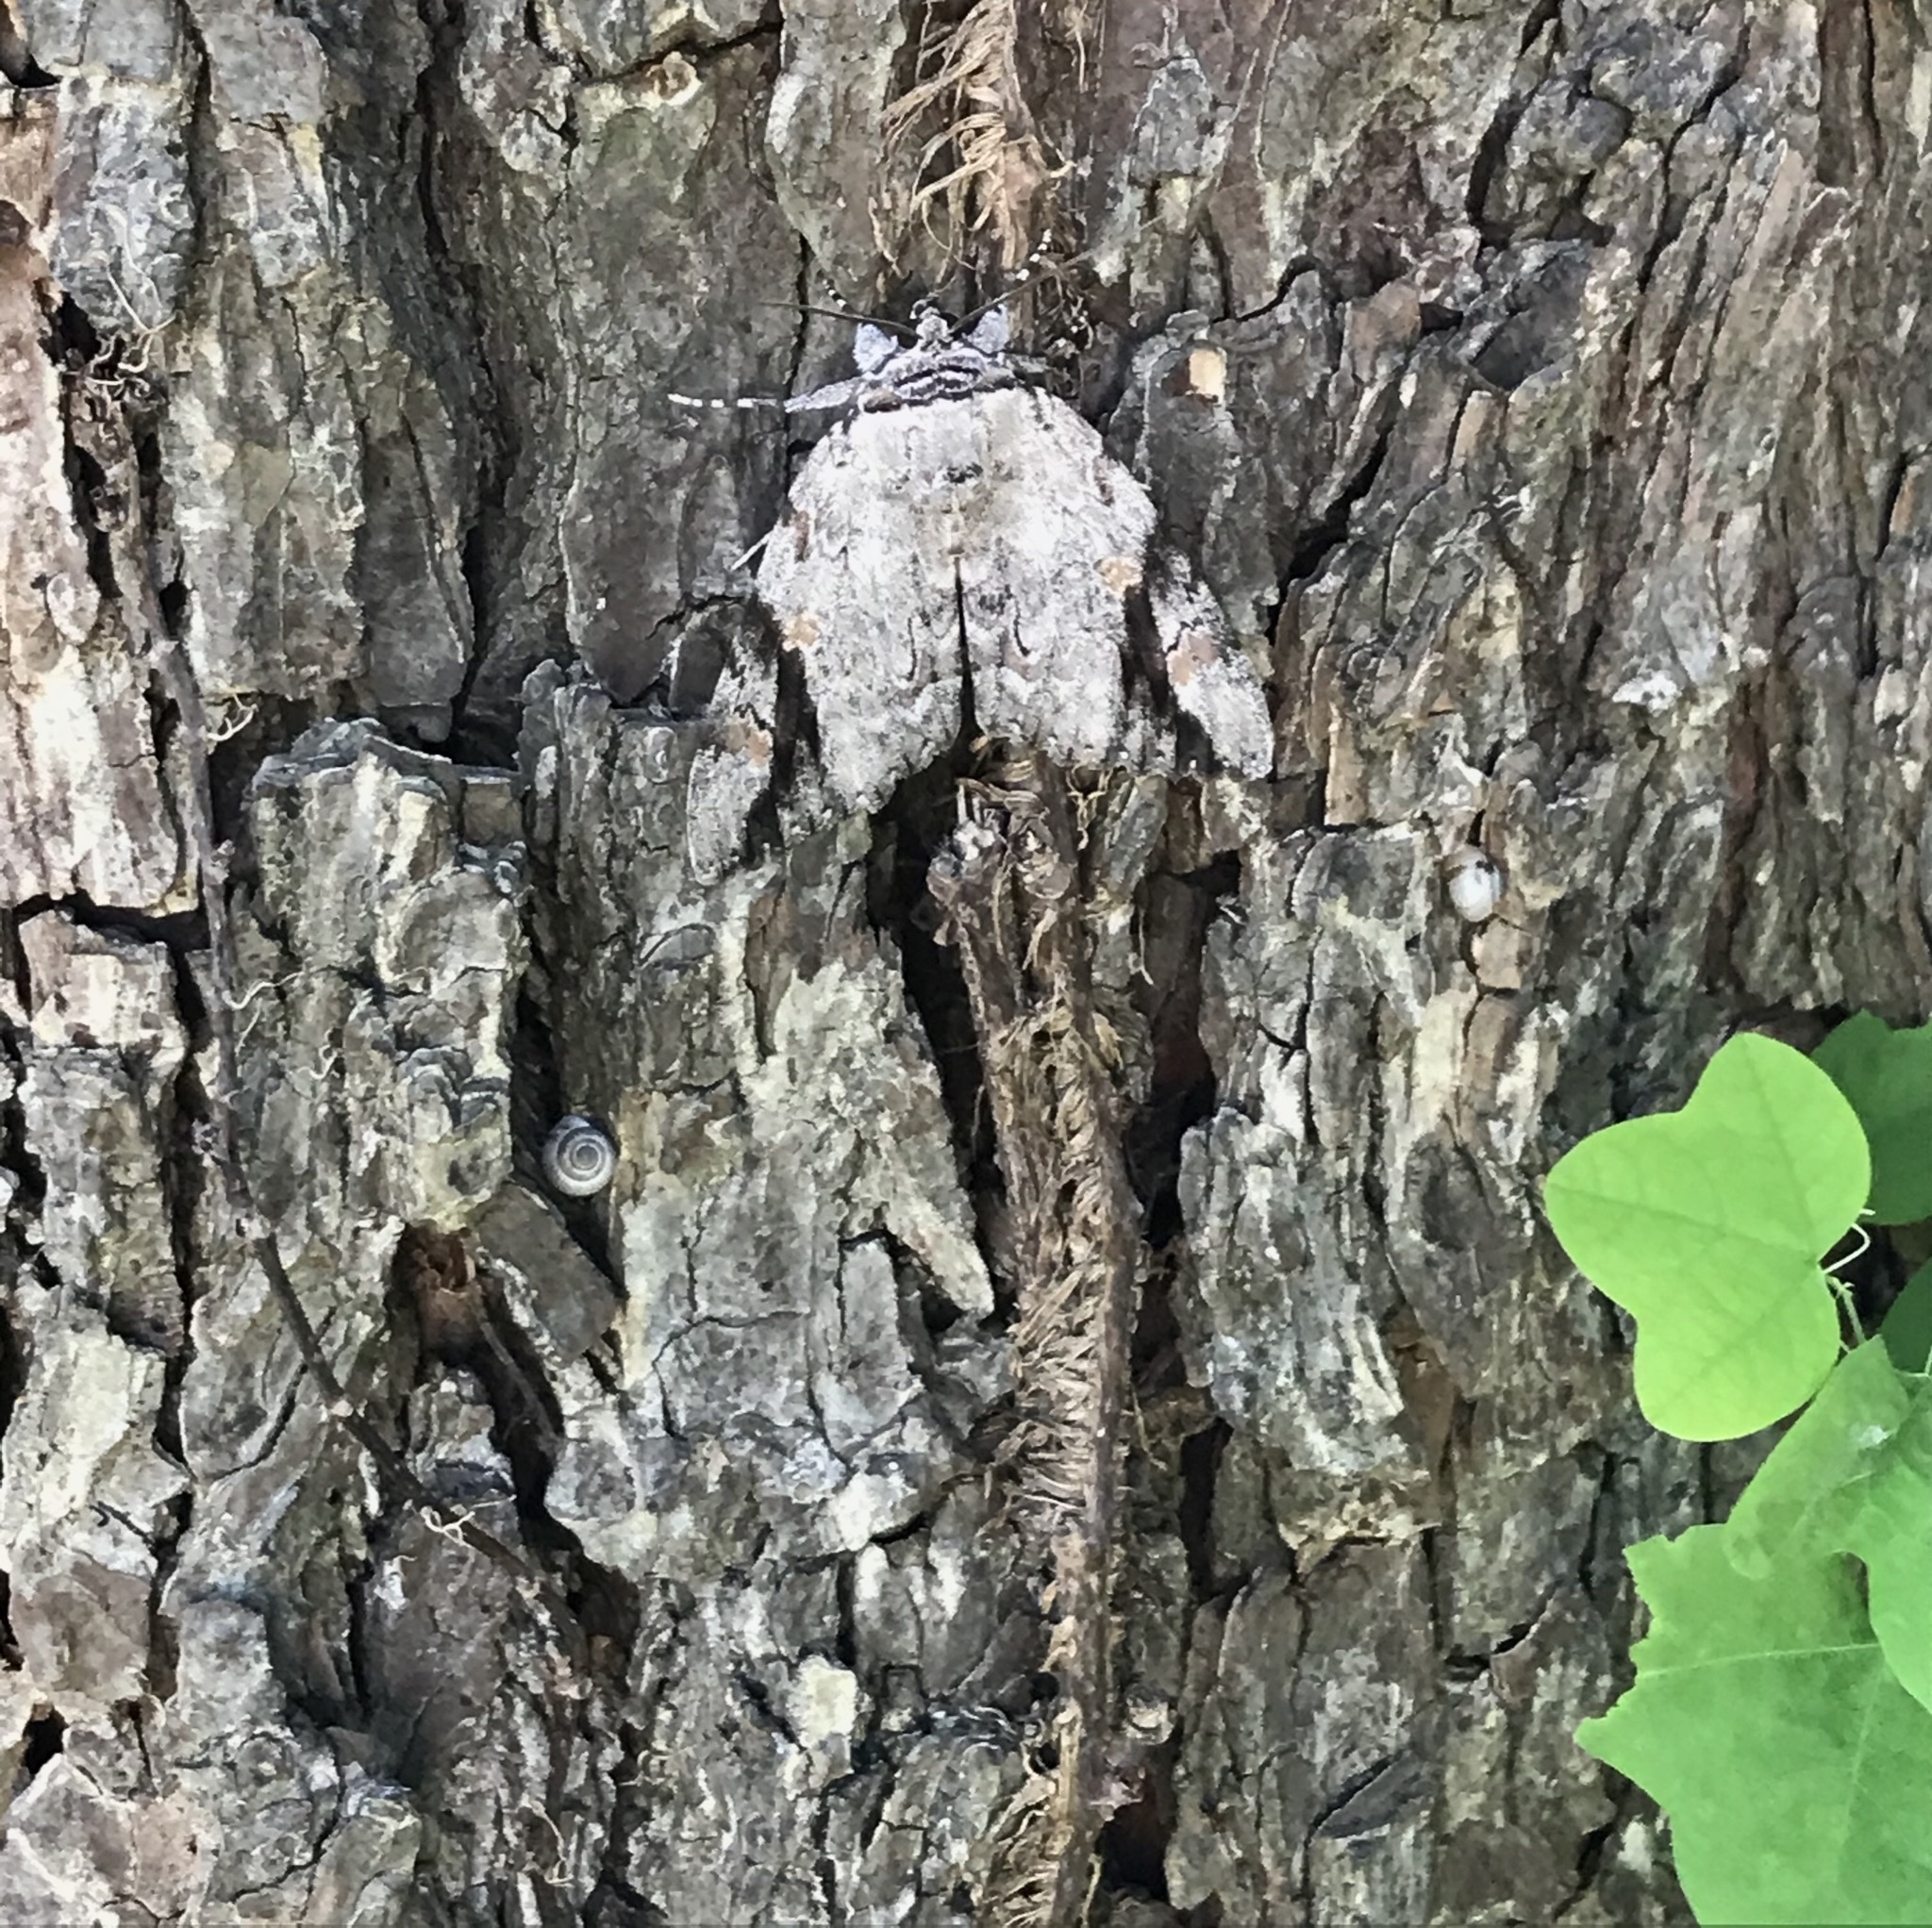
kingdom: Animalia
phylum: Arthropoda
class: Insecta
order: Lepidoptera
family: Erebidae
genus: Catocala
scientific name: Catocala maestosa
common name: Sad underwing
